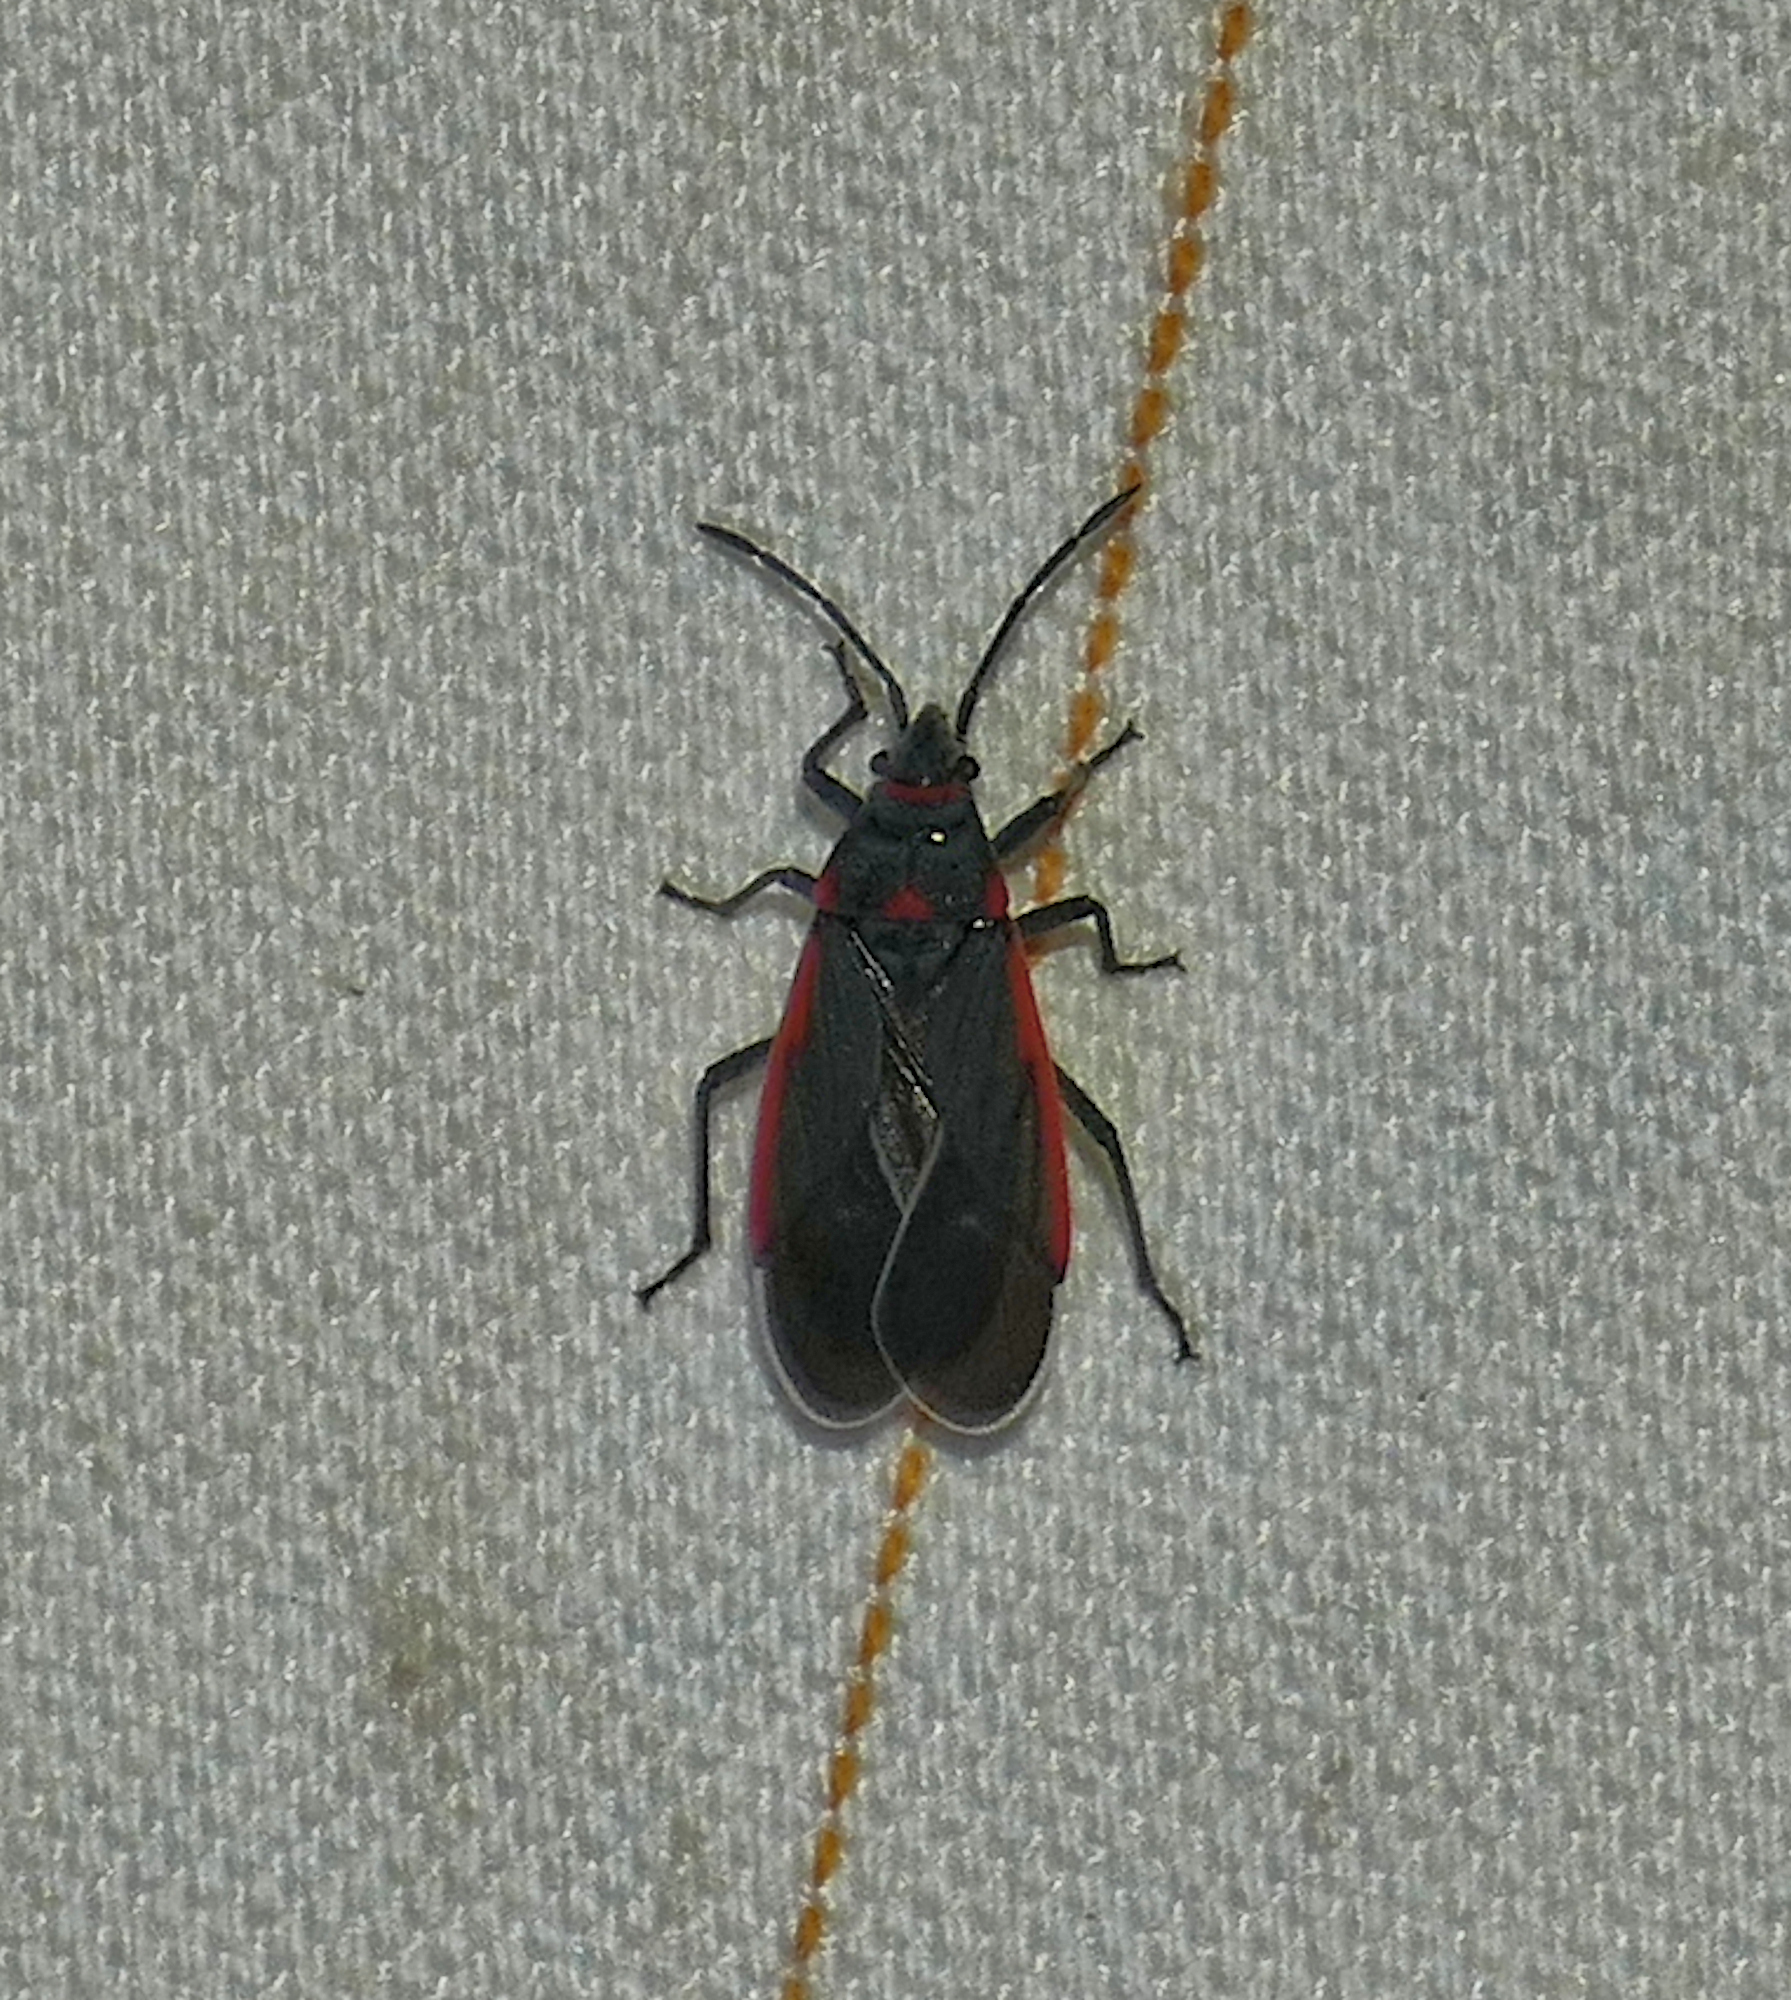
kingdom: Animalia
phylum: Arthropoda
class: Insecta
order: Hemiptera
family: Lygaeidae
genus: Melacoryphus
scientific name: Melacoryphus lateralis
